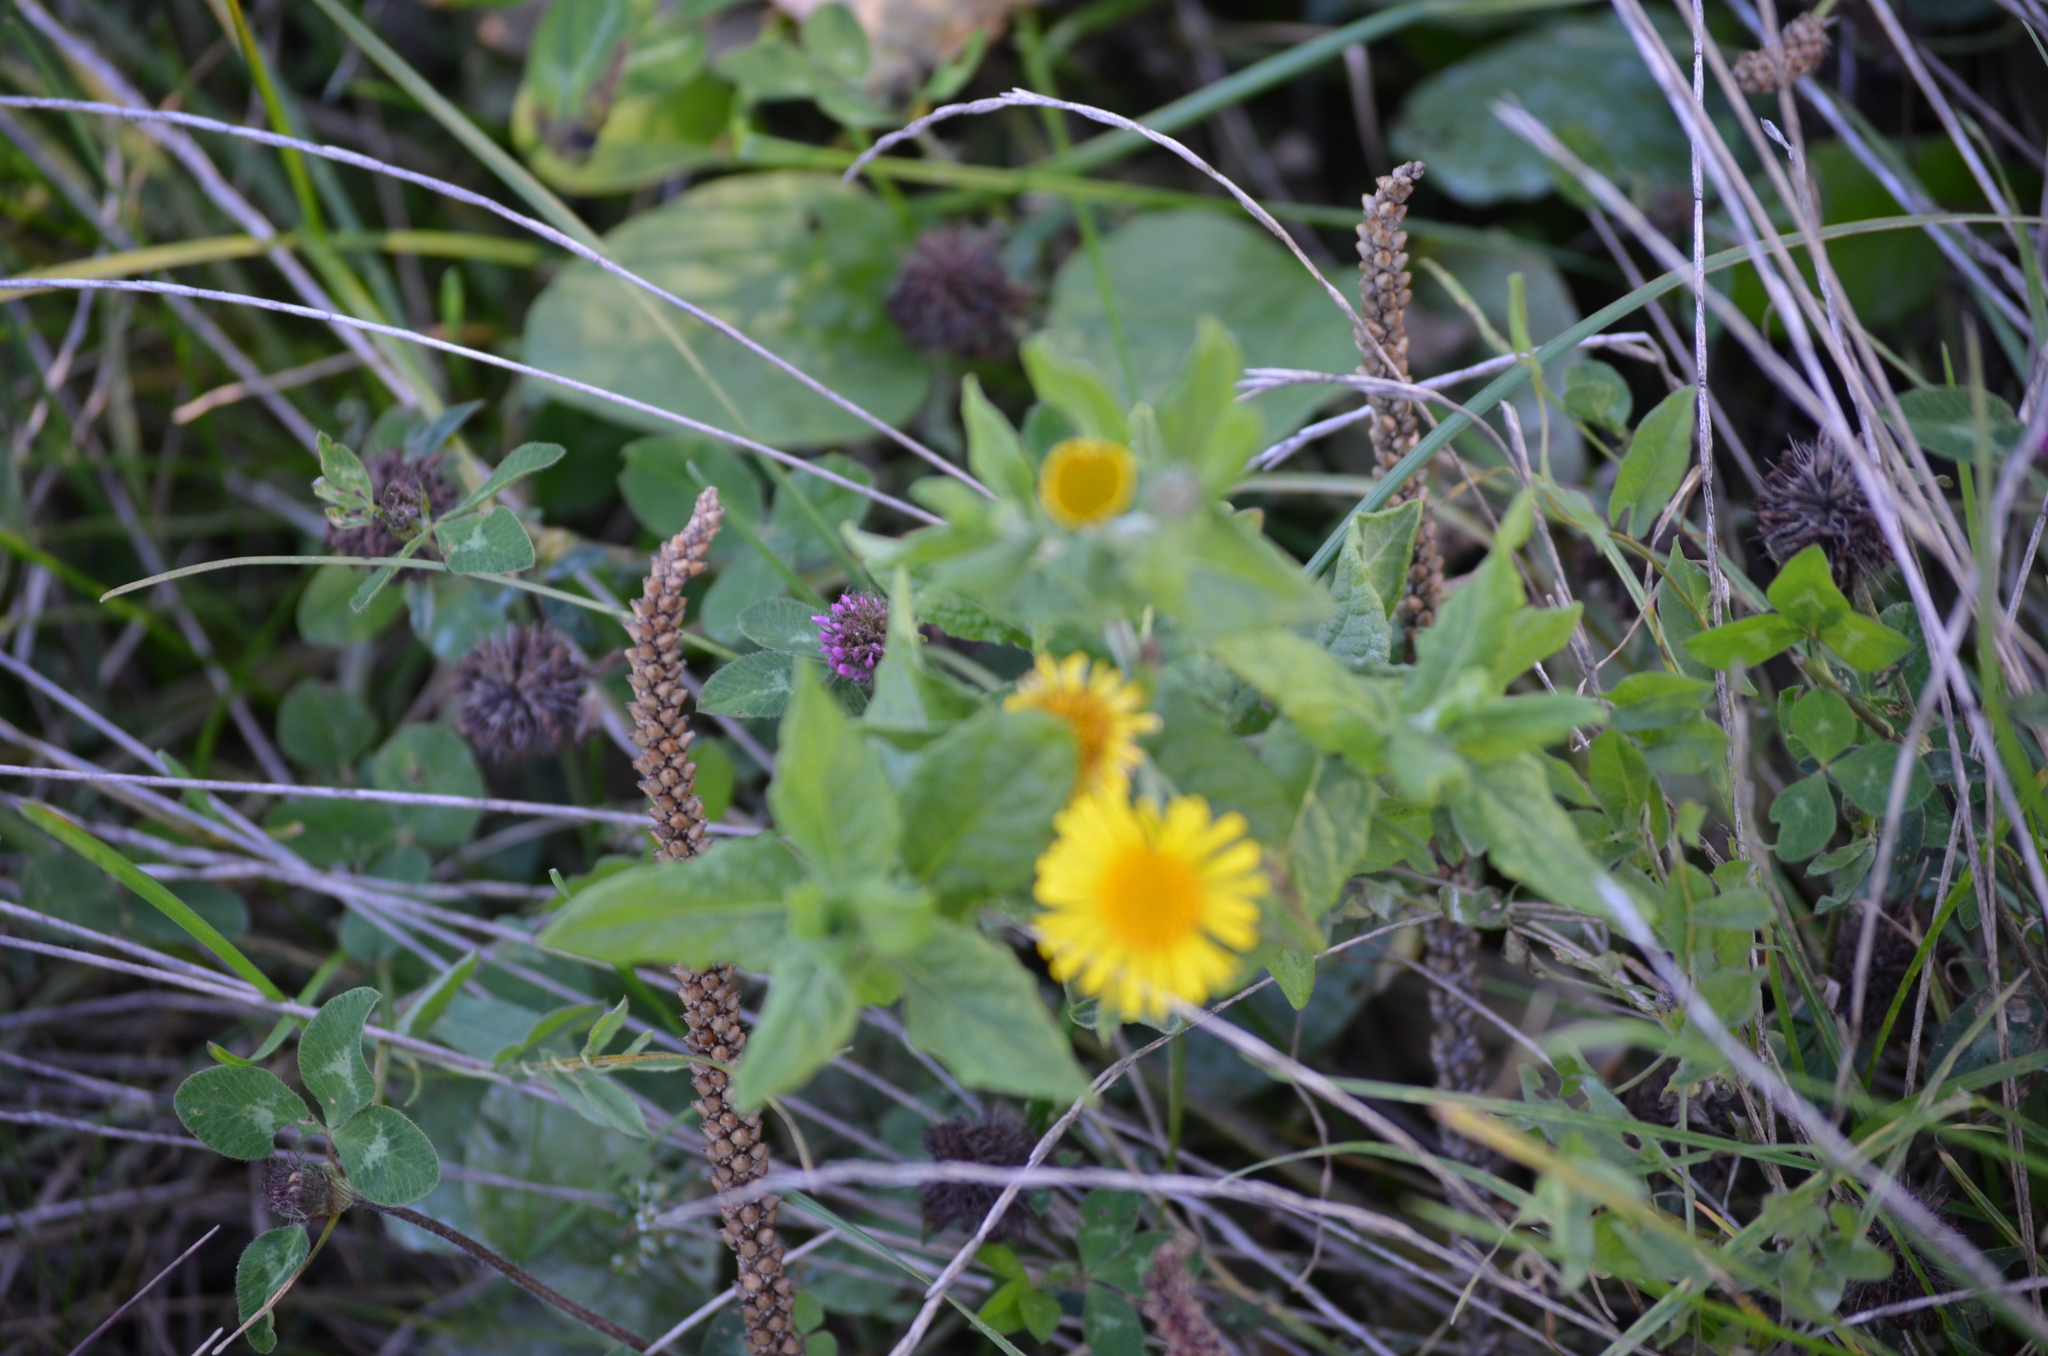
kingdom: Plantae
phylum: Tracheophyta
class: Magnoliopsida
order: Asterales
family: Asteraceae
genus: Pulicaria
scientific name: Pulicaria dysenterica
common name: Common fleabane
